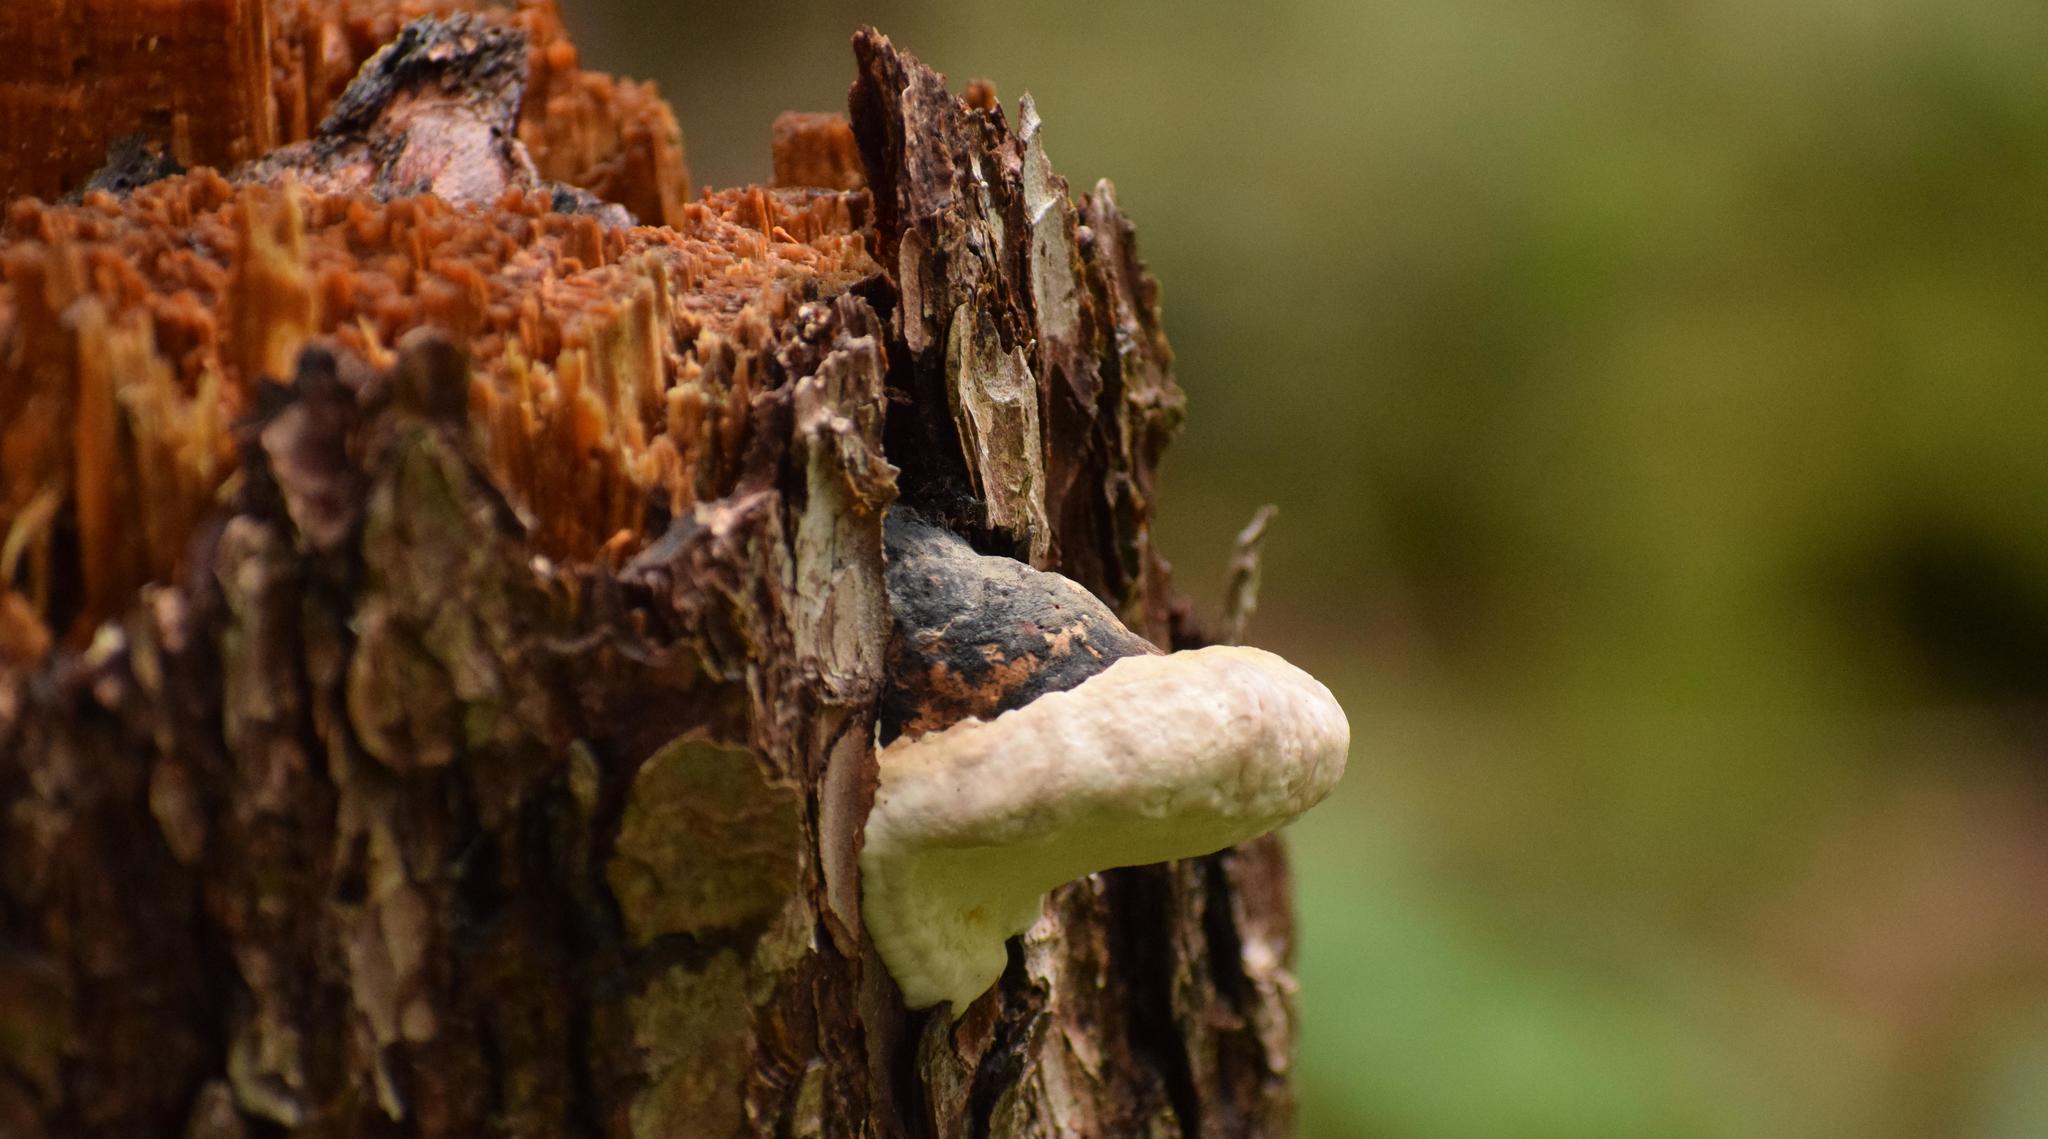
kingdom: Fungi
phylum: Basidiomycota
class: Agaricomycetes
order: Polyporales
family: Fomitopsidaceae
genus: Fomitopsis
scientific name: Fomitopsis pinicola
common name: Red-belted bracket
